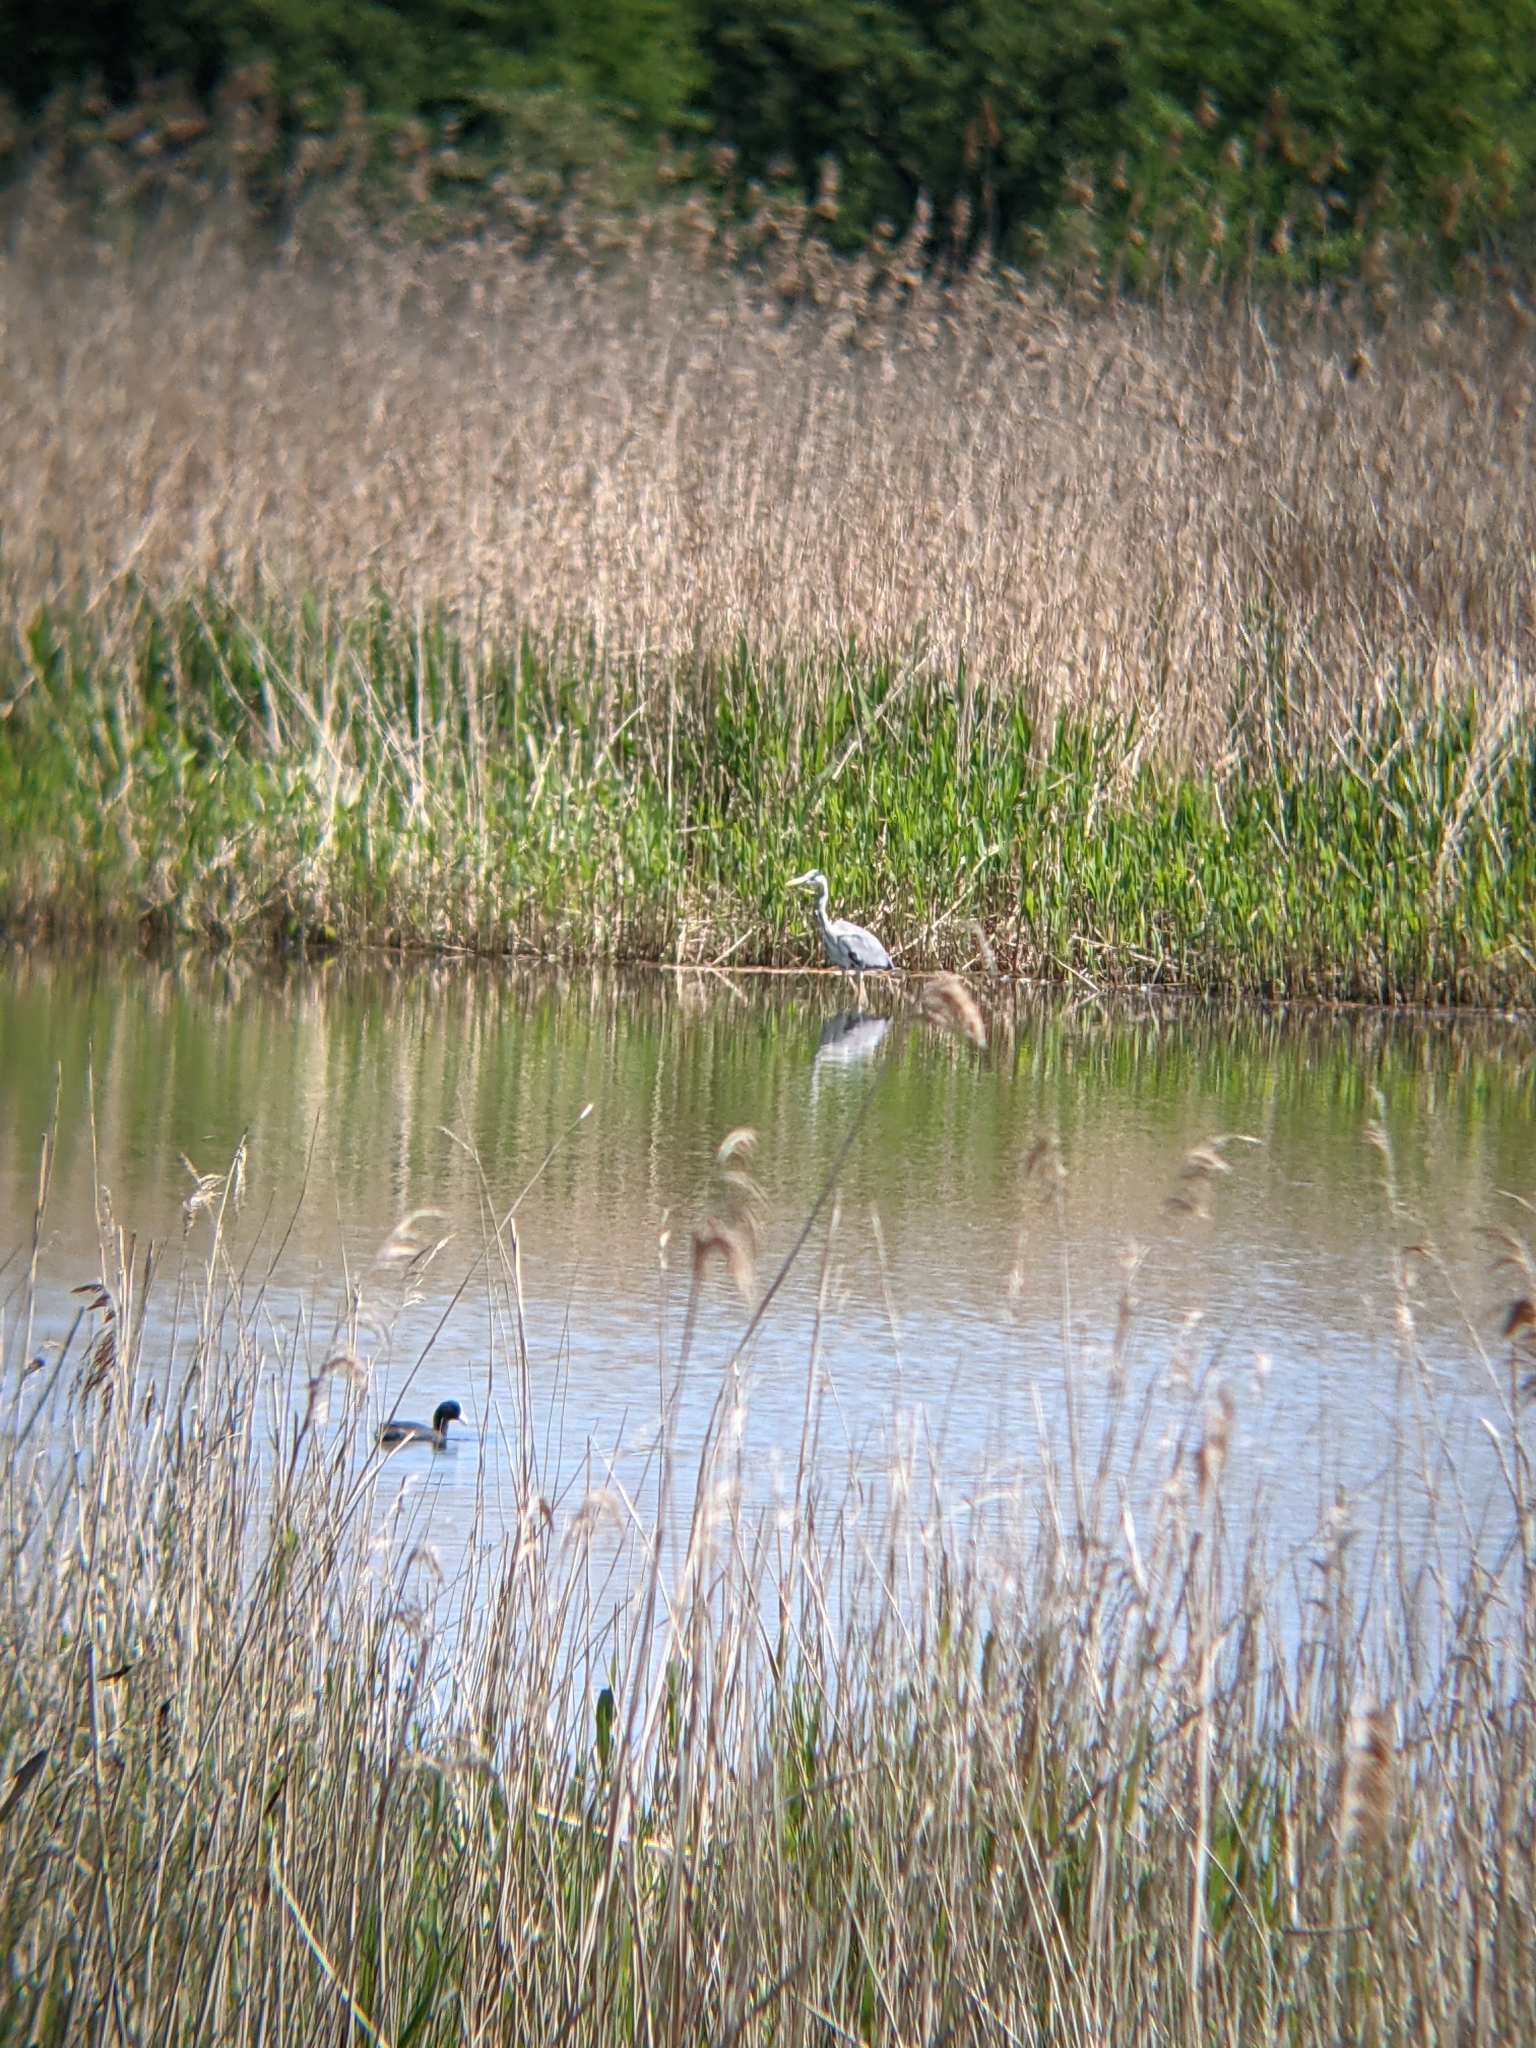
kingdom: Animalia
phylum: Chordata
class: Aves
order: Pelecaniformes
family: Ardeidae
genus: Ardea
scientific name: Ardea cinerea
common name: Grey heron
